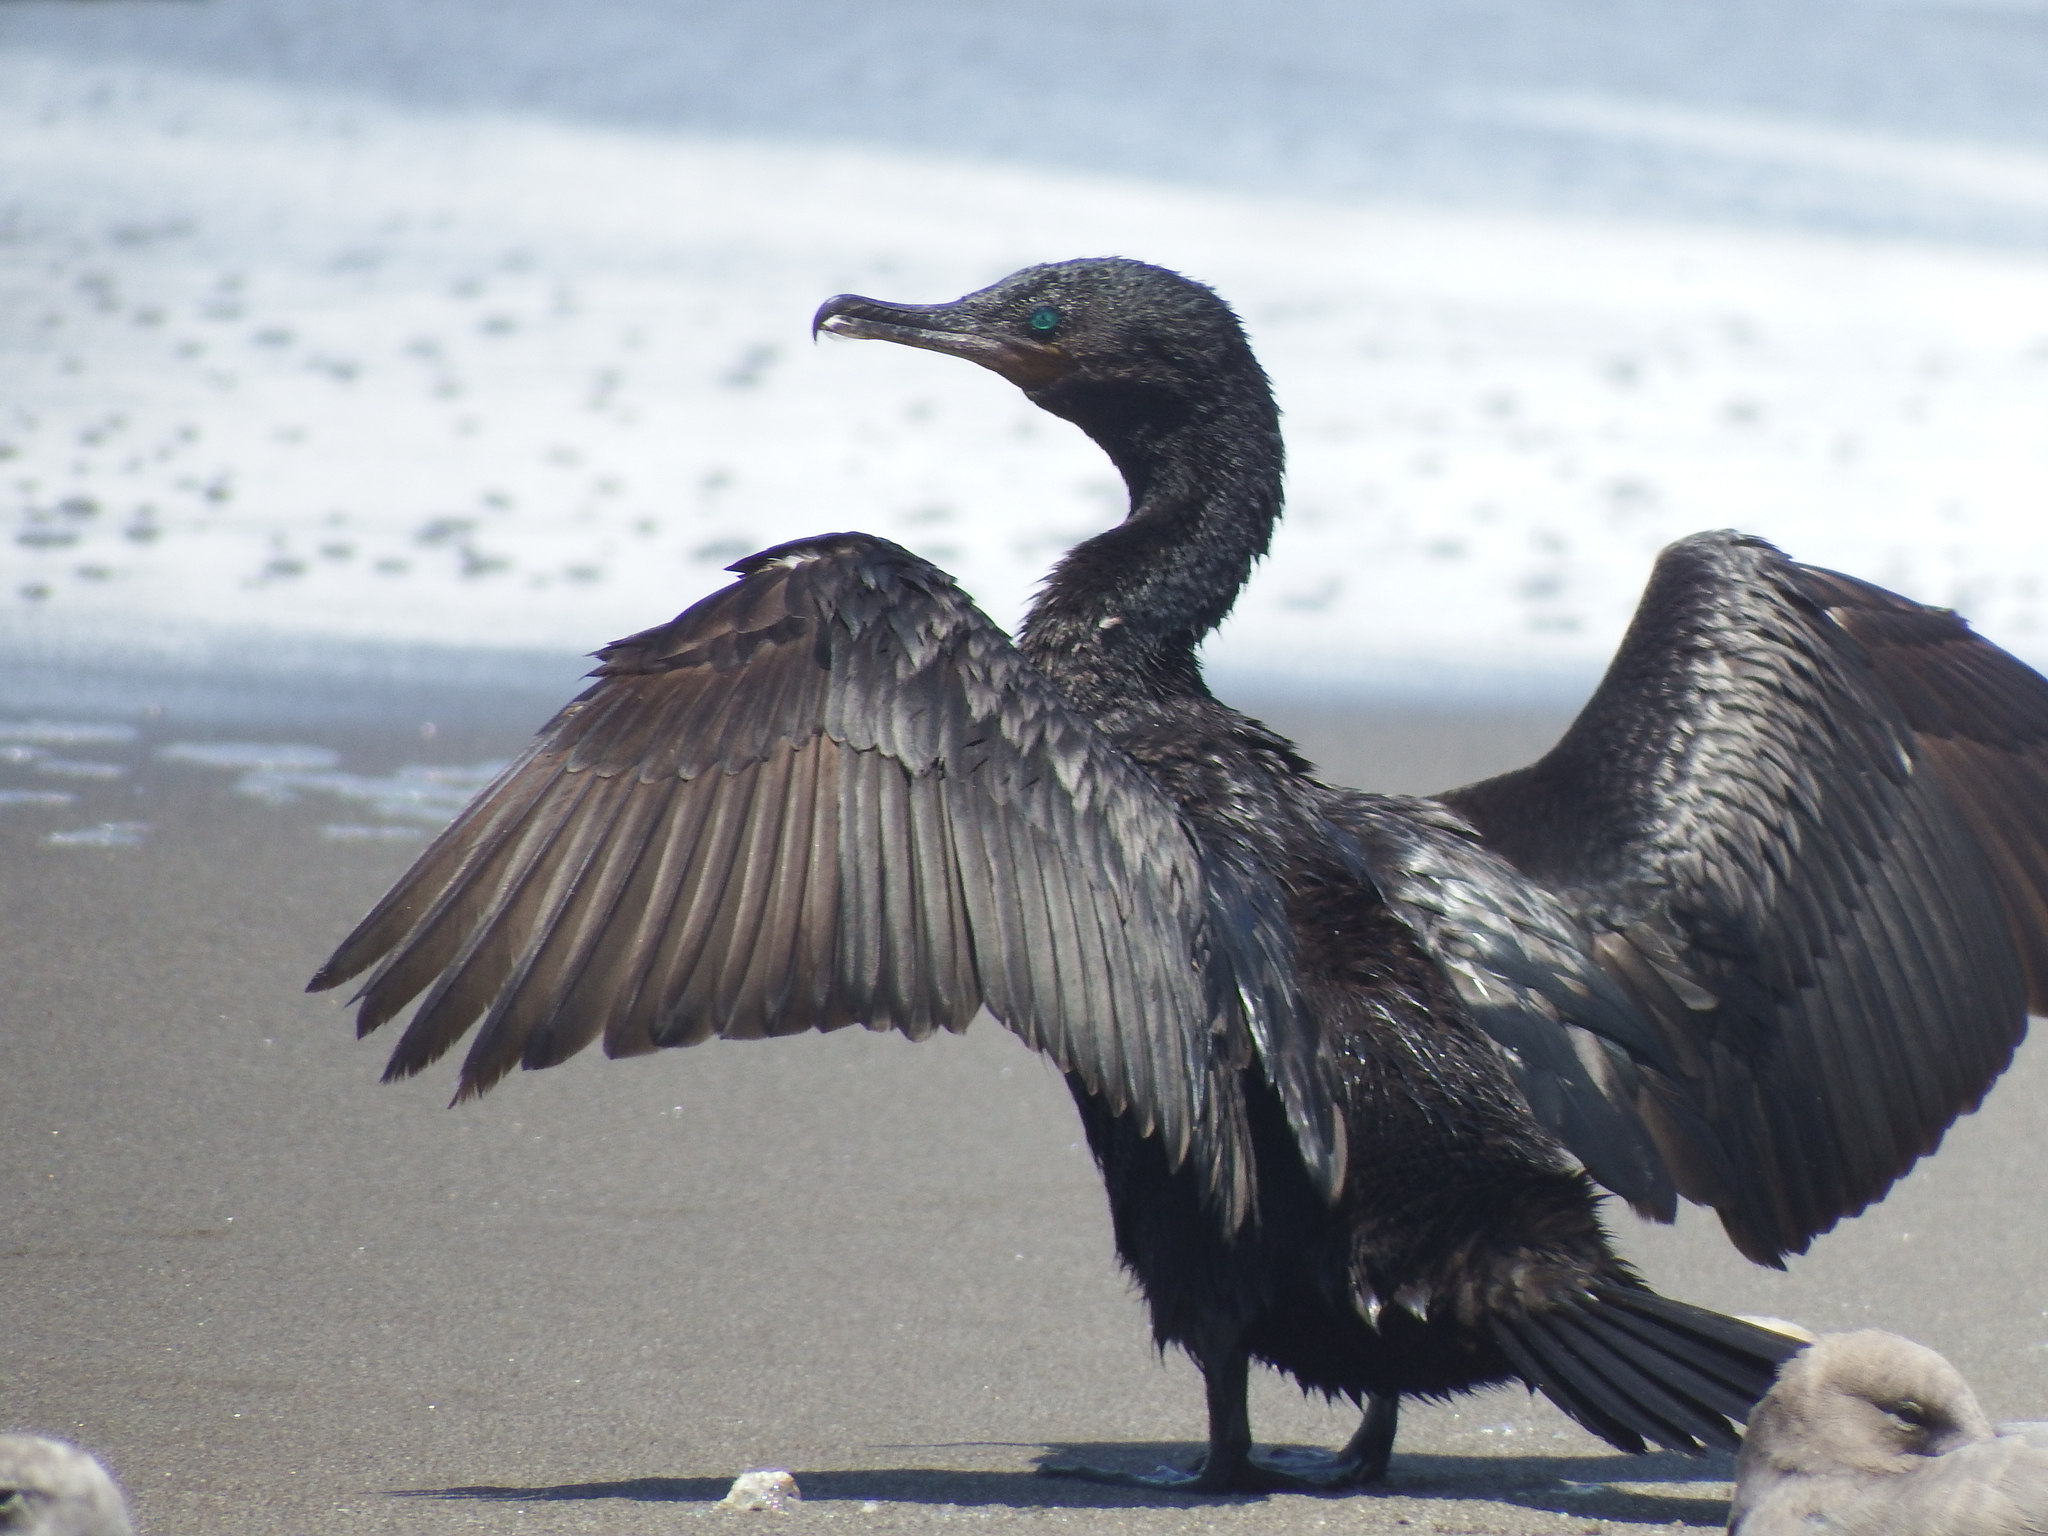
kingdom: Animalia
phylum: Chordata
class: Aves
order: Suliformes
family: Phalacrocoracidae
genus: Phalacrocorax
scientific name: Phalacrocorax brasilianus
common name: Neotropic cormorant
